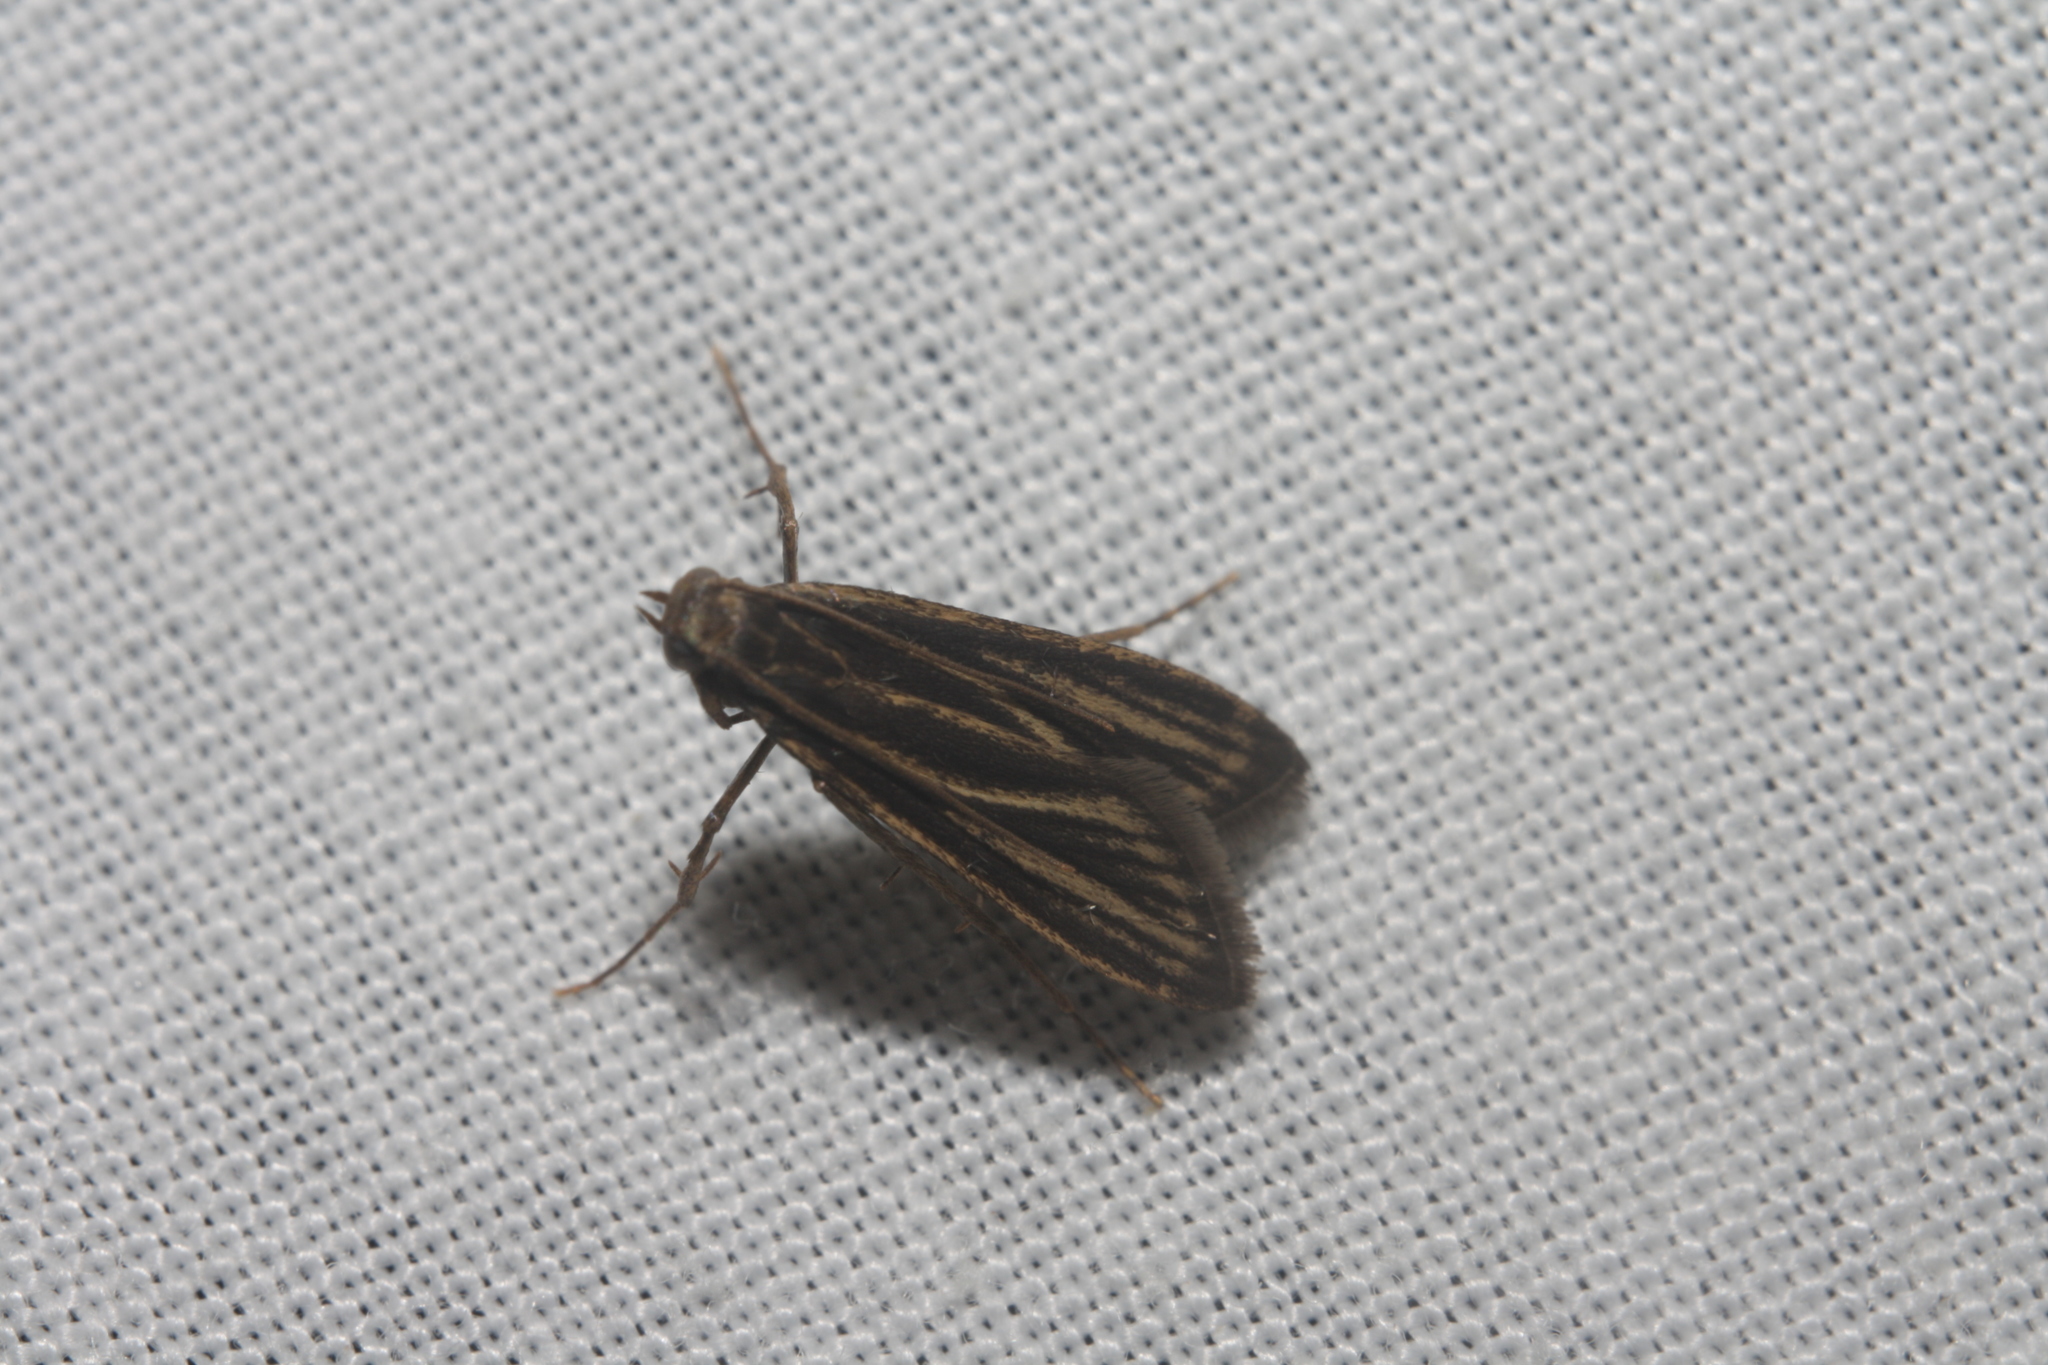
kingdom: Animalia
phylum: Arthropoda
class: Insecta
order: Lepidoptera
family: Pyralidae
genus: Cryptoses
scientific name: Cryptoses choloepi
